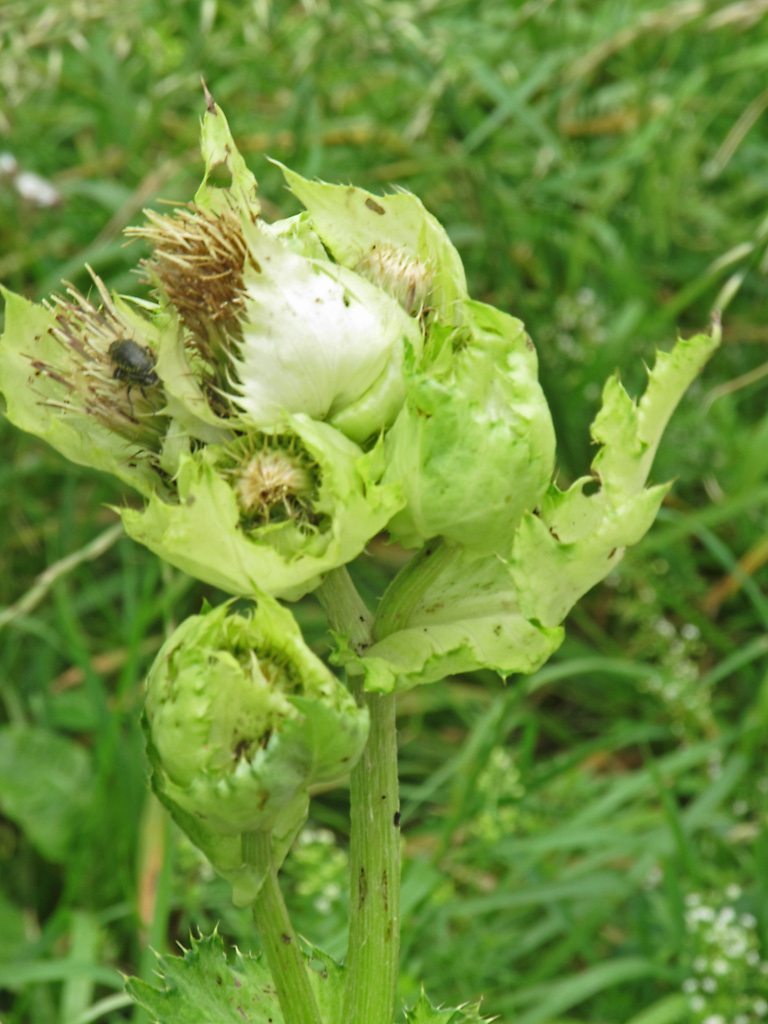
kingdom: Plantae
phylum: Tracheophyta
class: Magnoliopsida
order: Asterales
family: Asteraceae
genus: Cirsium
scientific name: Cirsium oleraceum
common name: Cabbage thistle
